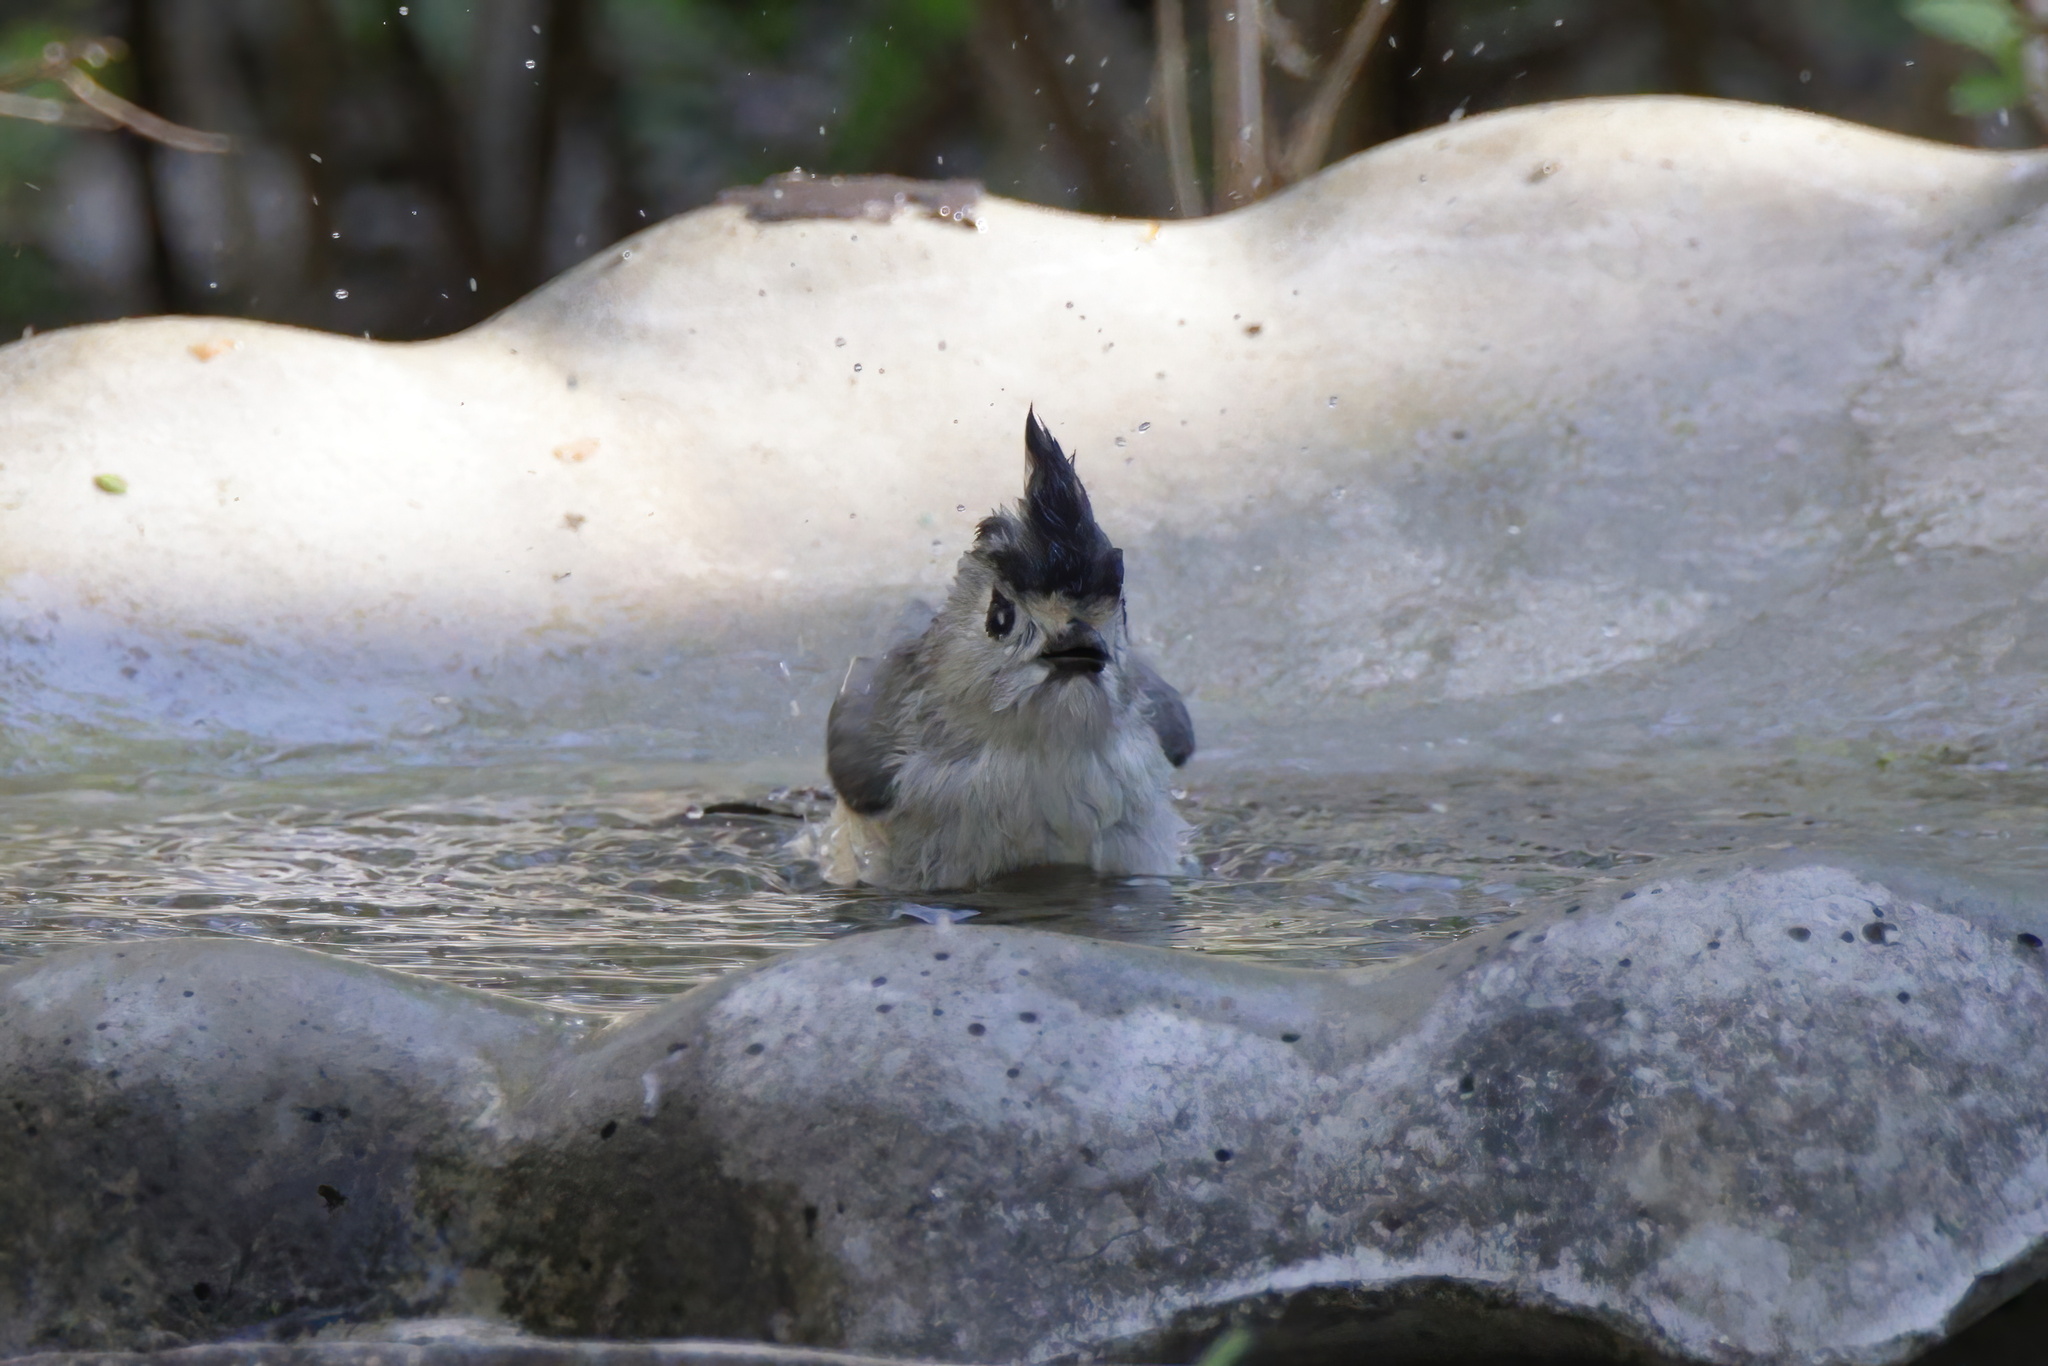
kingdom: Animalia
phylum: Chordata
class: Aves
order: Passeriformes
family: Paridae
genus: Baeolophus
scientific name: Baeolophus atricristatus
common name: Black-crested titmouse
